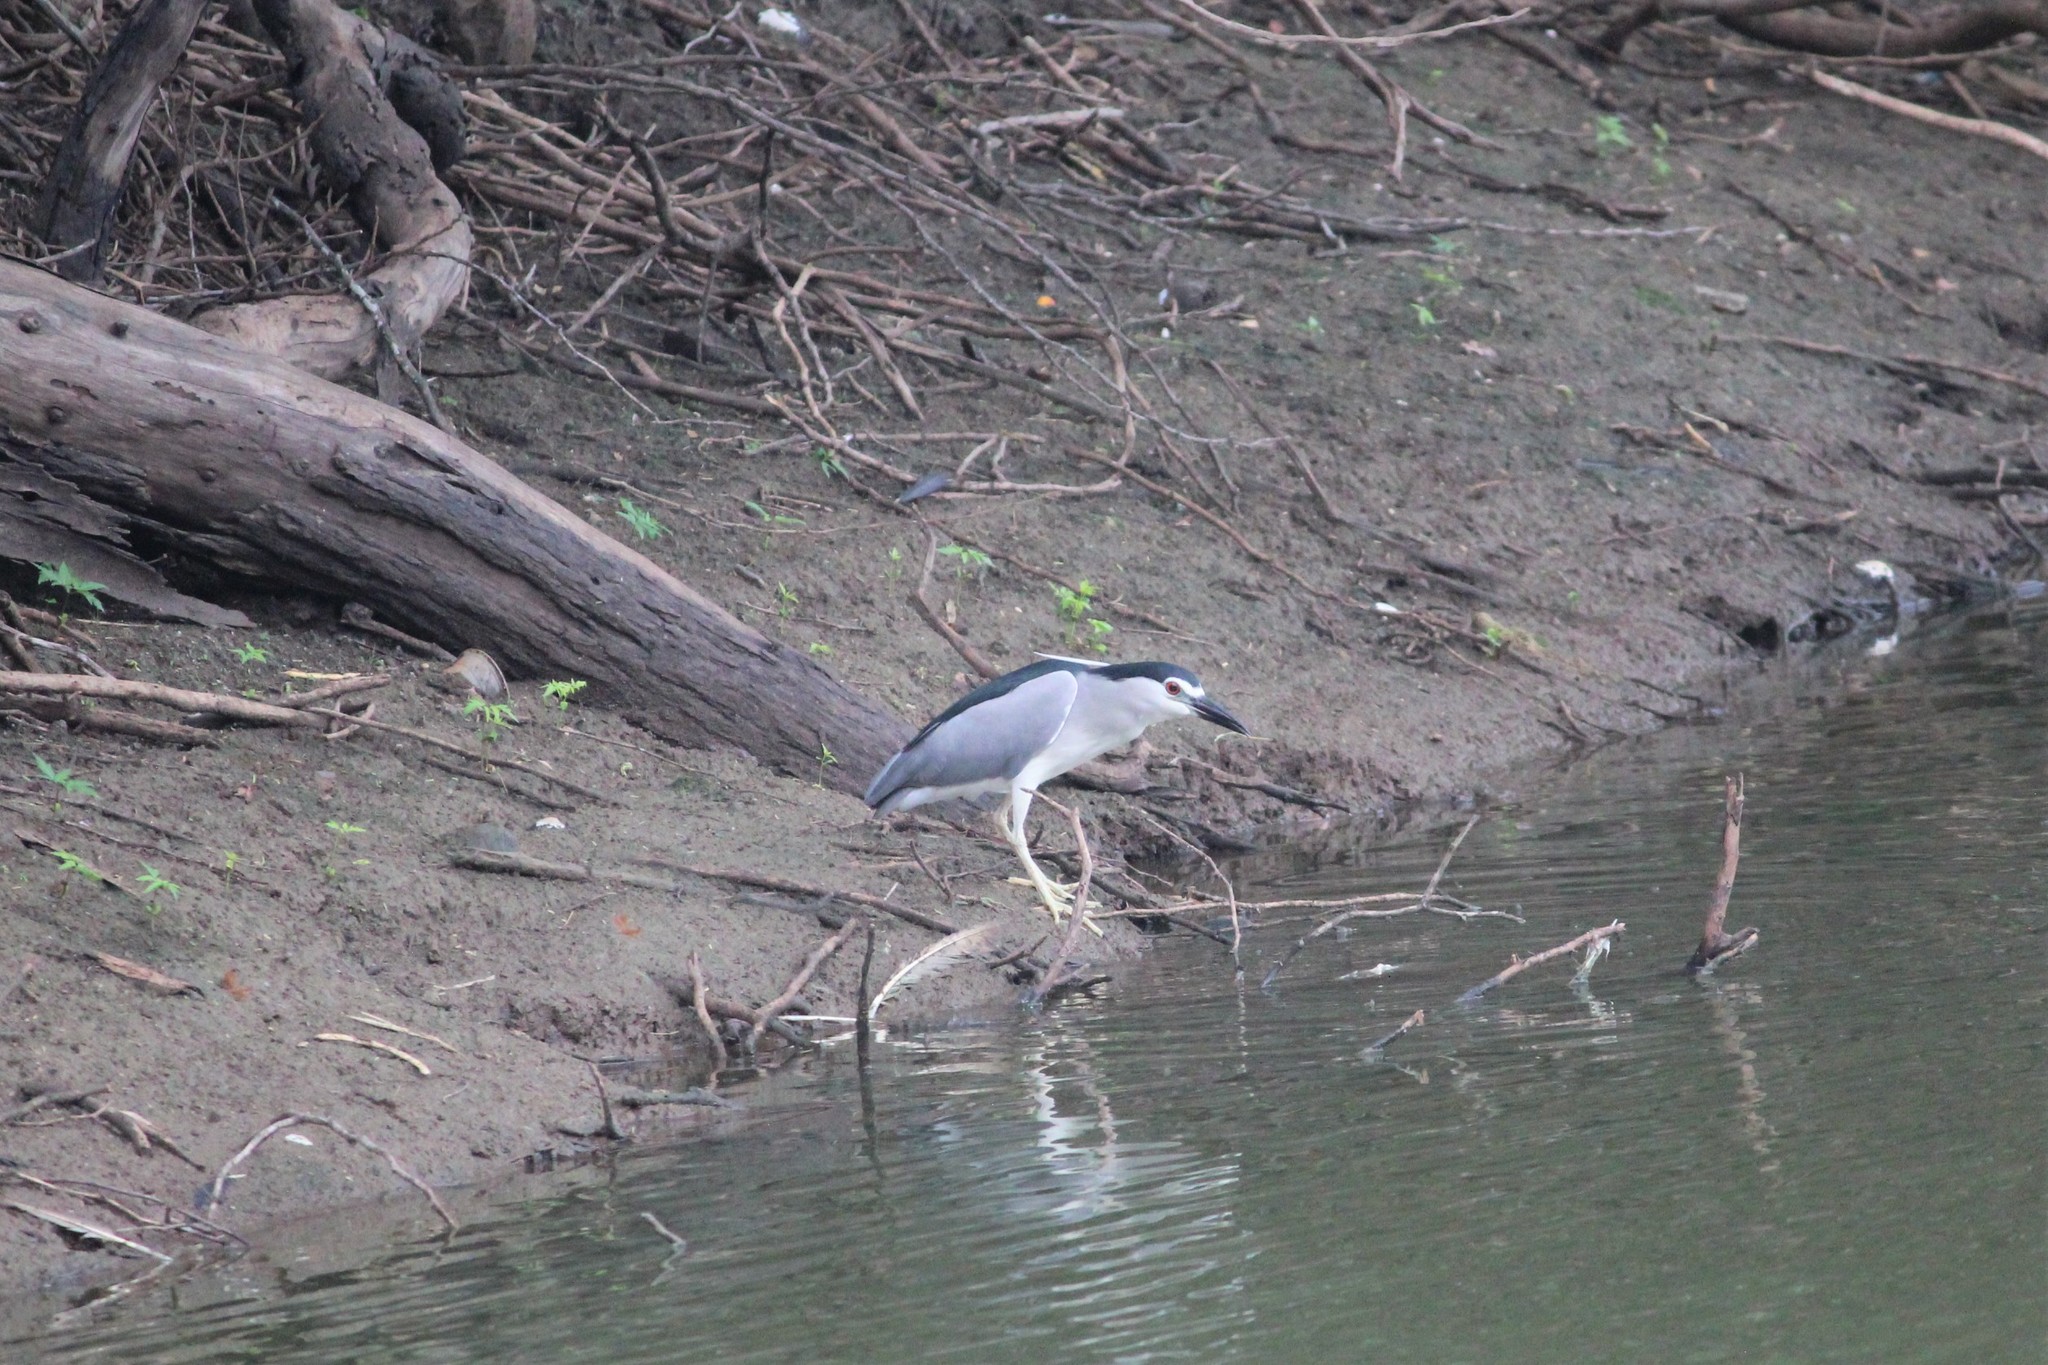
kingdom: Animalia
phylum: Chordata
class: Aves
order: Pelecaniformes
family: Ardeidae
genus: Nycticorax
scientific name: Nycticorax nycticorax
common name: Black-crowned night heron
